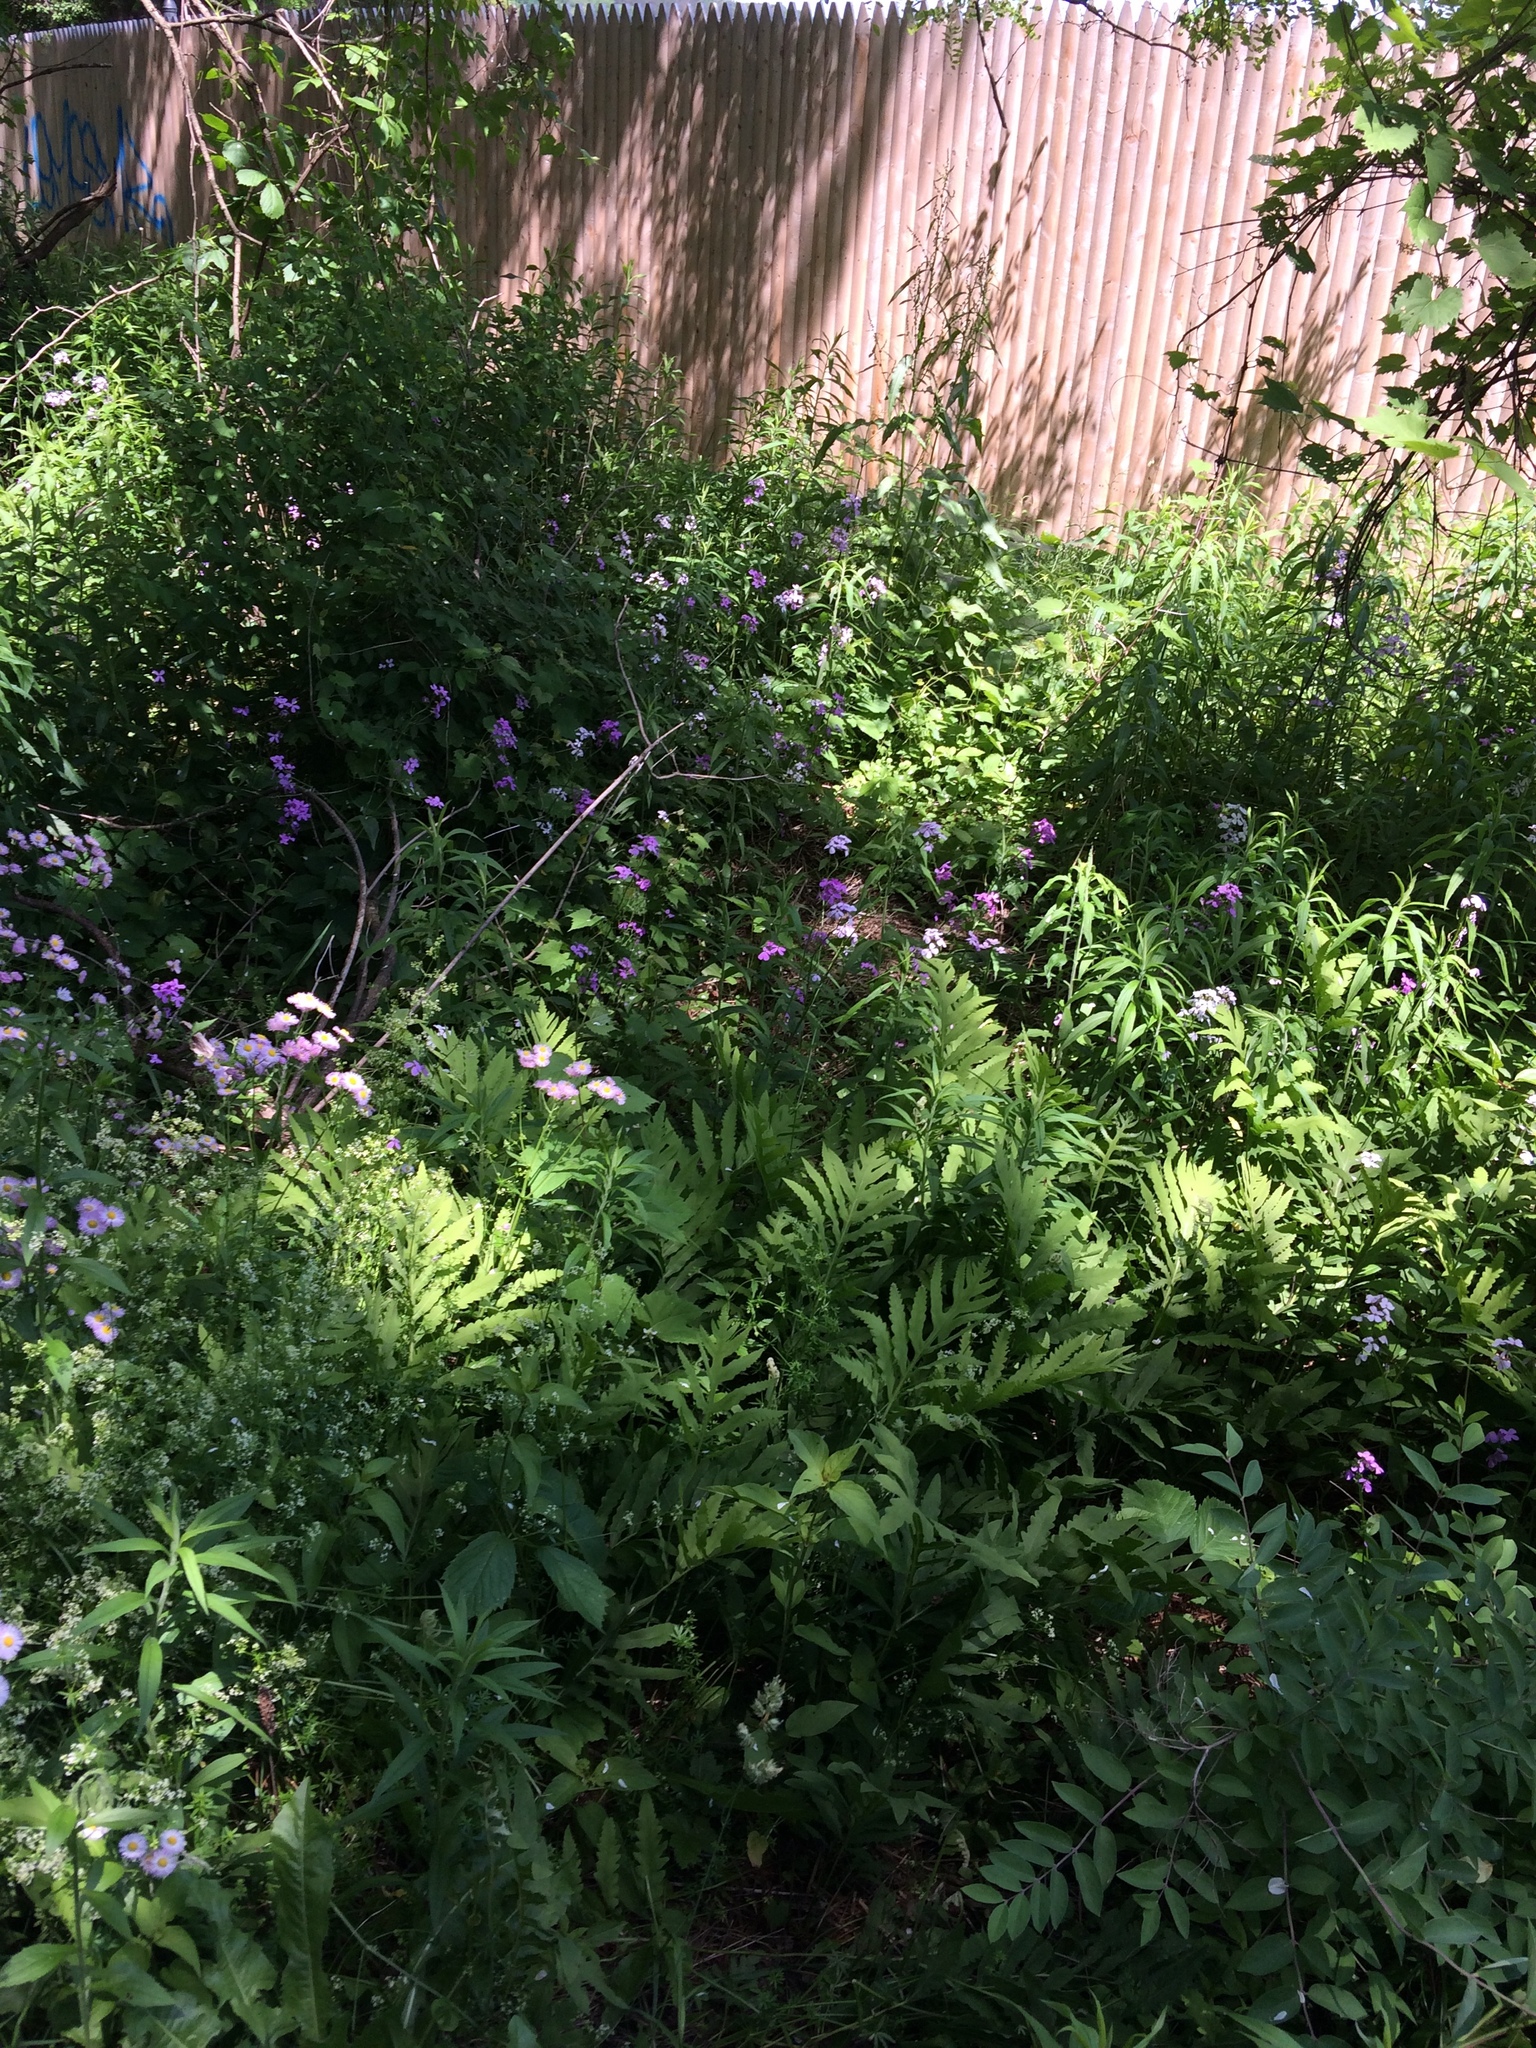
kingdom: Plantae
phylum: Tracheophyta
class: Magnoliopsida
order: Brassicales
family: Brassicaceae
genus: Hesperis
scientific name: Hesperis matronalis
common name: Dame's-violet
